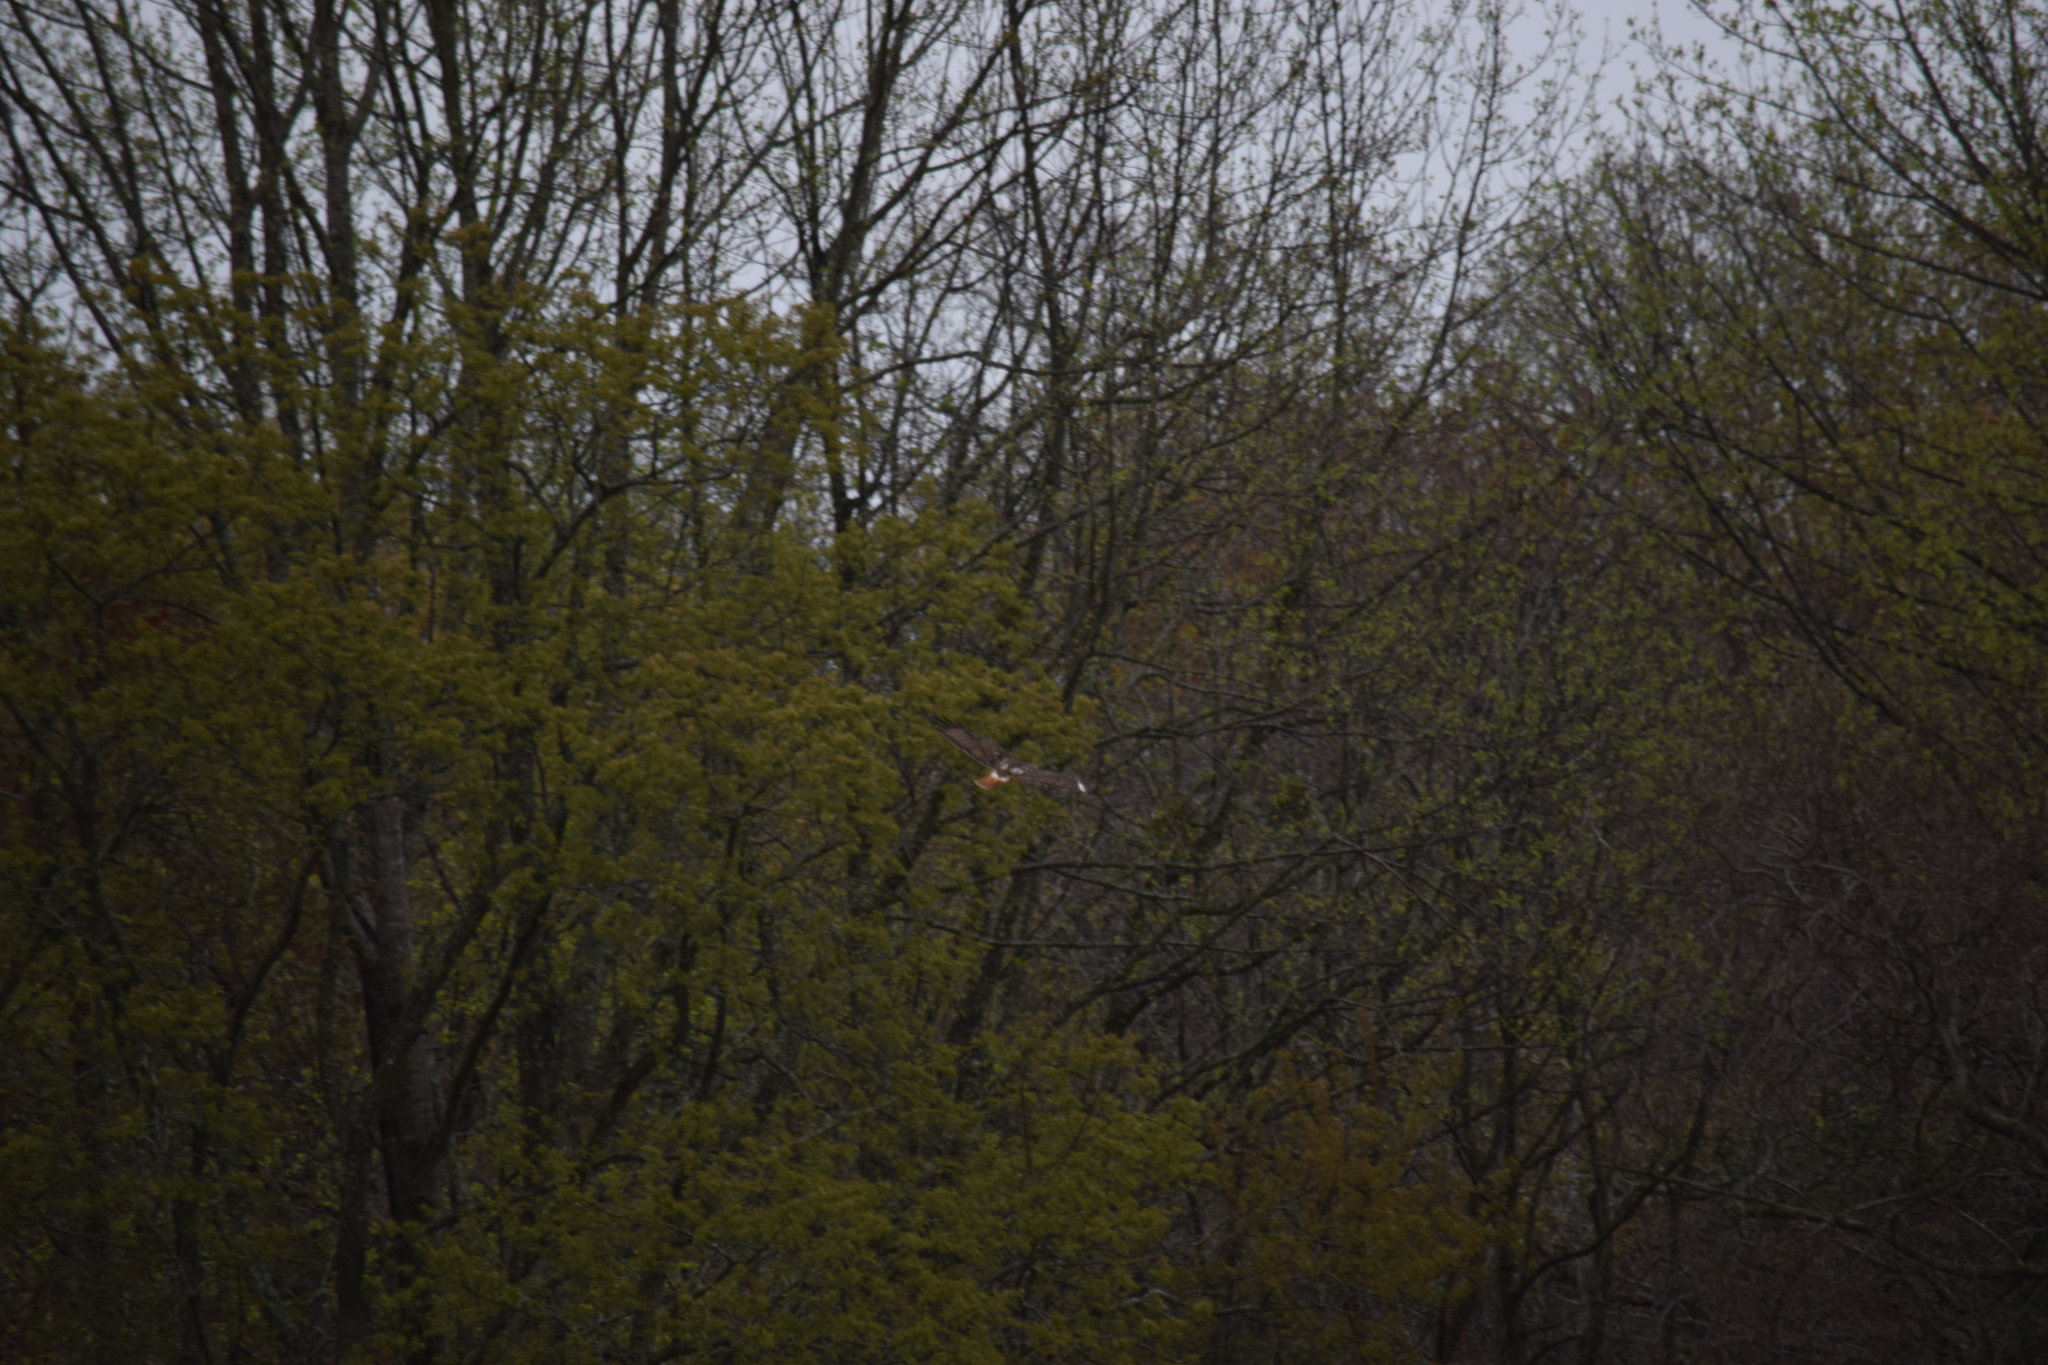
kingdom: Animalia
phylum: Chordata
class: Aves
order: Accipitriformes
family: Accipitridae
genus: Buteo
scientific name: Buteo jamaicensis
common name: Red-tailed hawk
